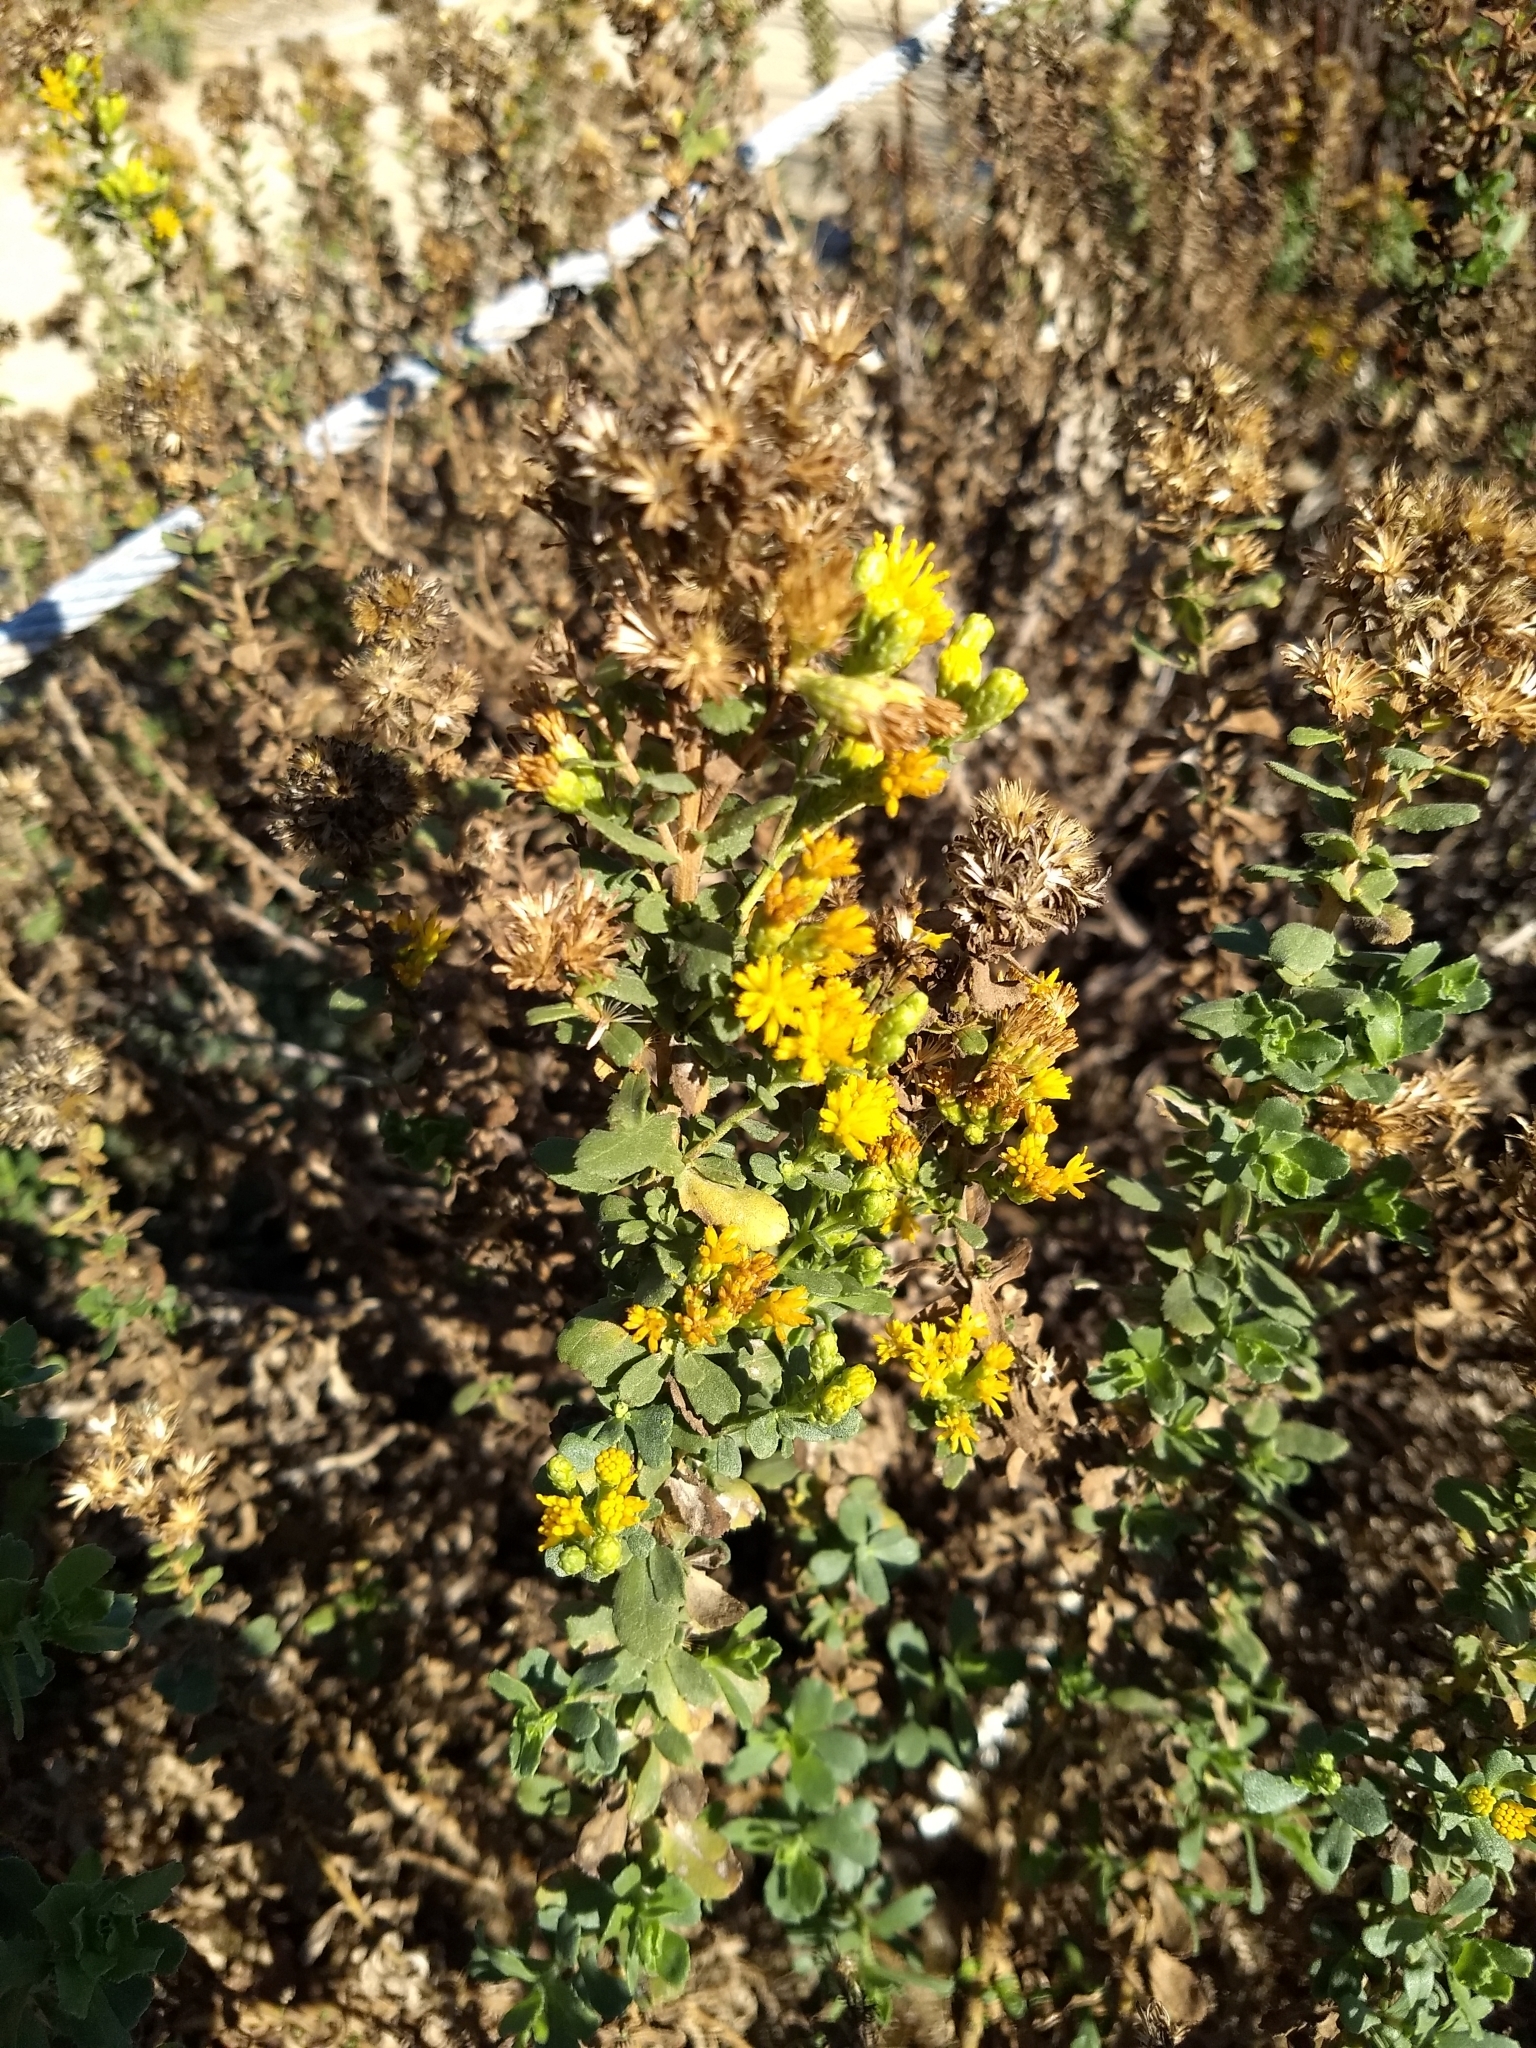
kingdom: Plantae
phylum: Tracheophyta
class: Magnoliopsida
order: Asterales
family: Asteraceae
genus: Isocoma
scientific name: Isocoma menziesii
